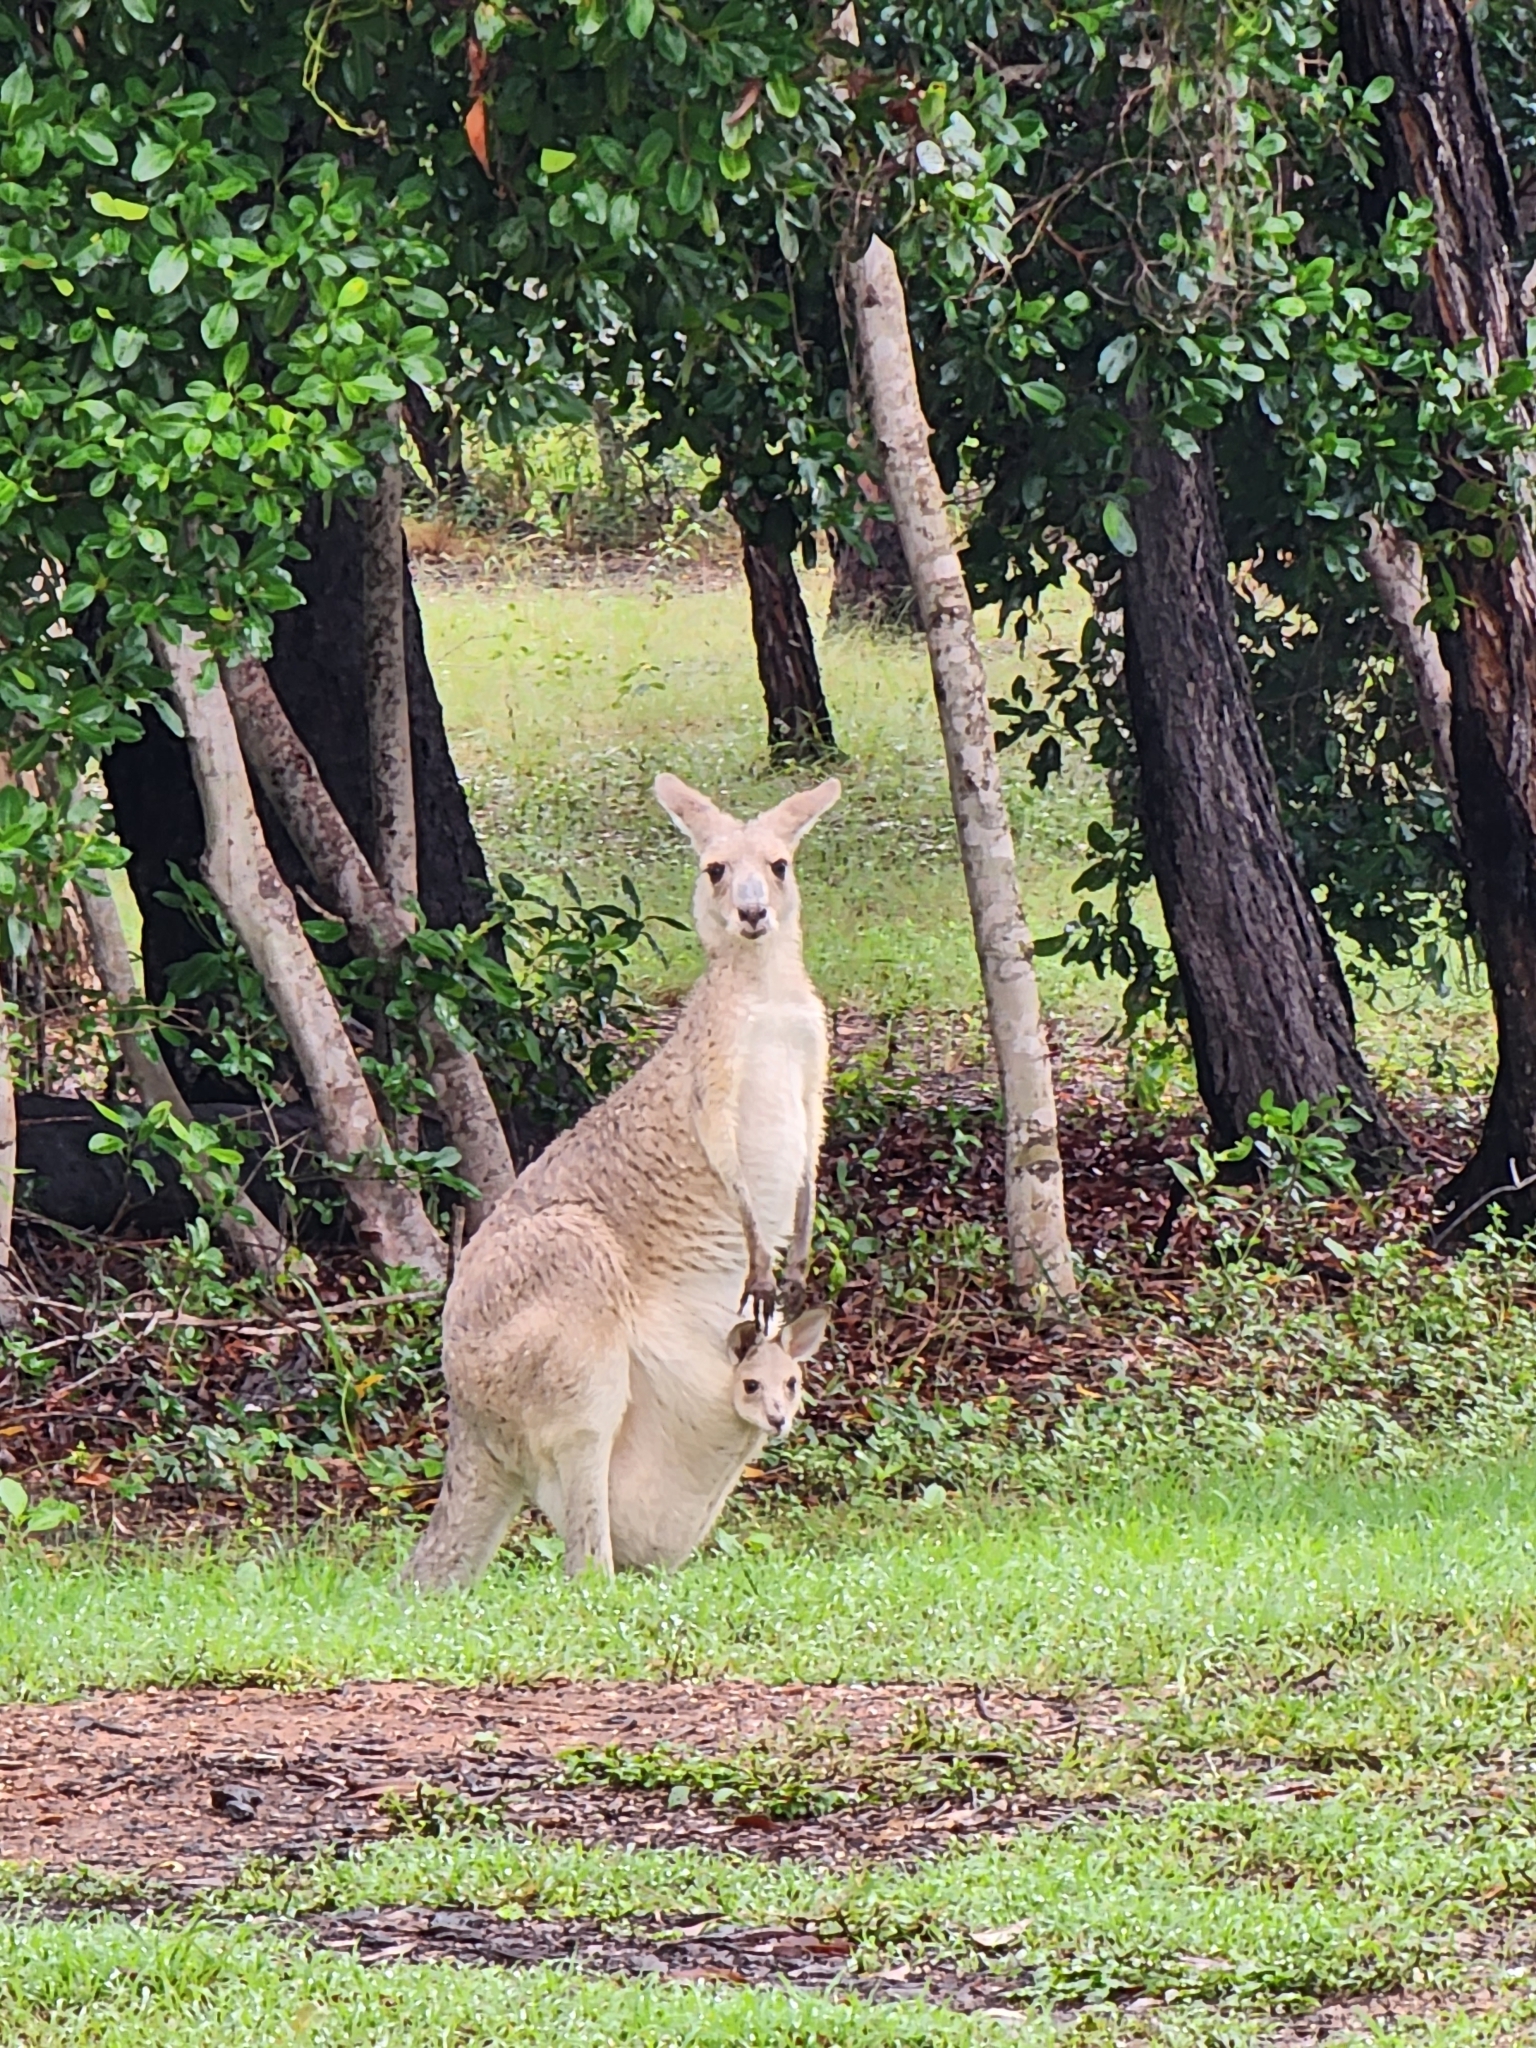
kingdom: Animalia
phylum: Chordata
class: Mammalia
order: Diprotodontia
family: Macropodidae
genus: Macropus
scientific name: Macropus giganteus
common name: Eastern grey kangaroo
